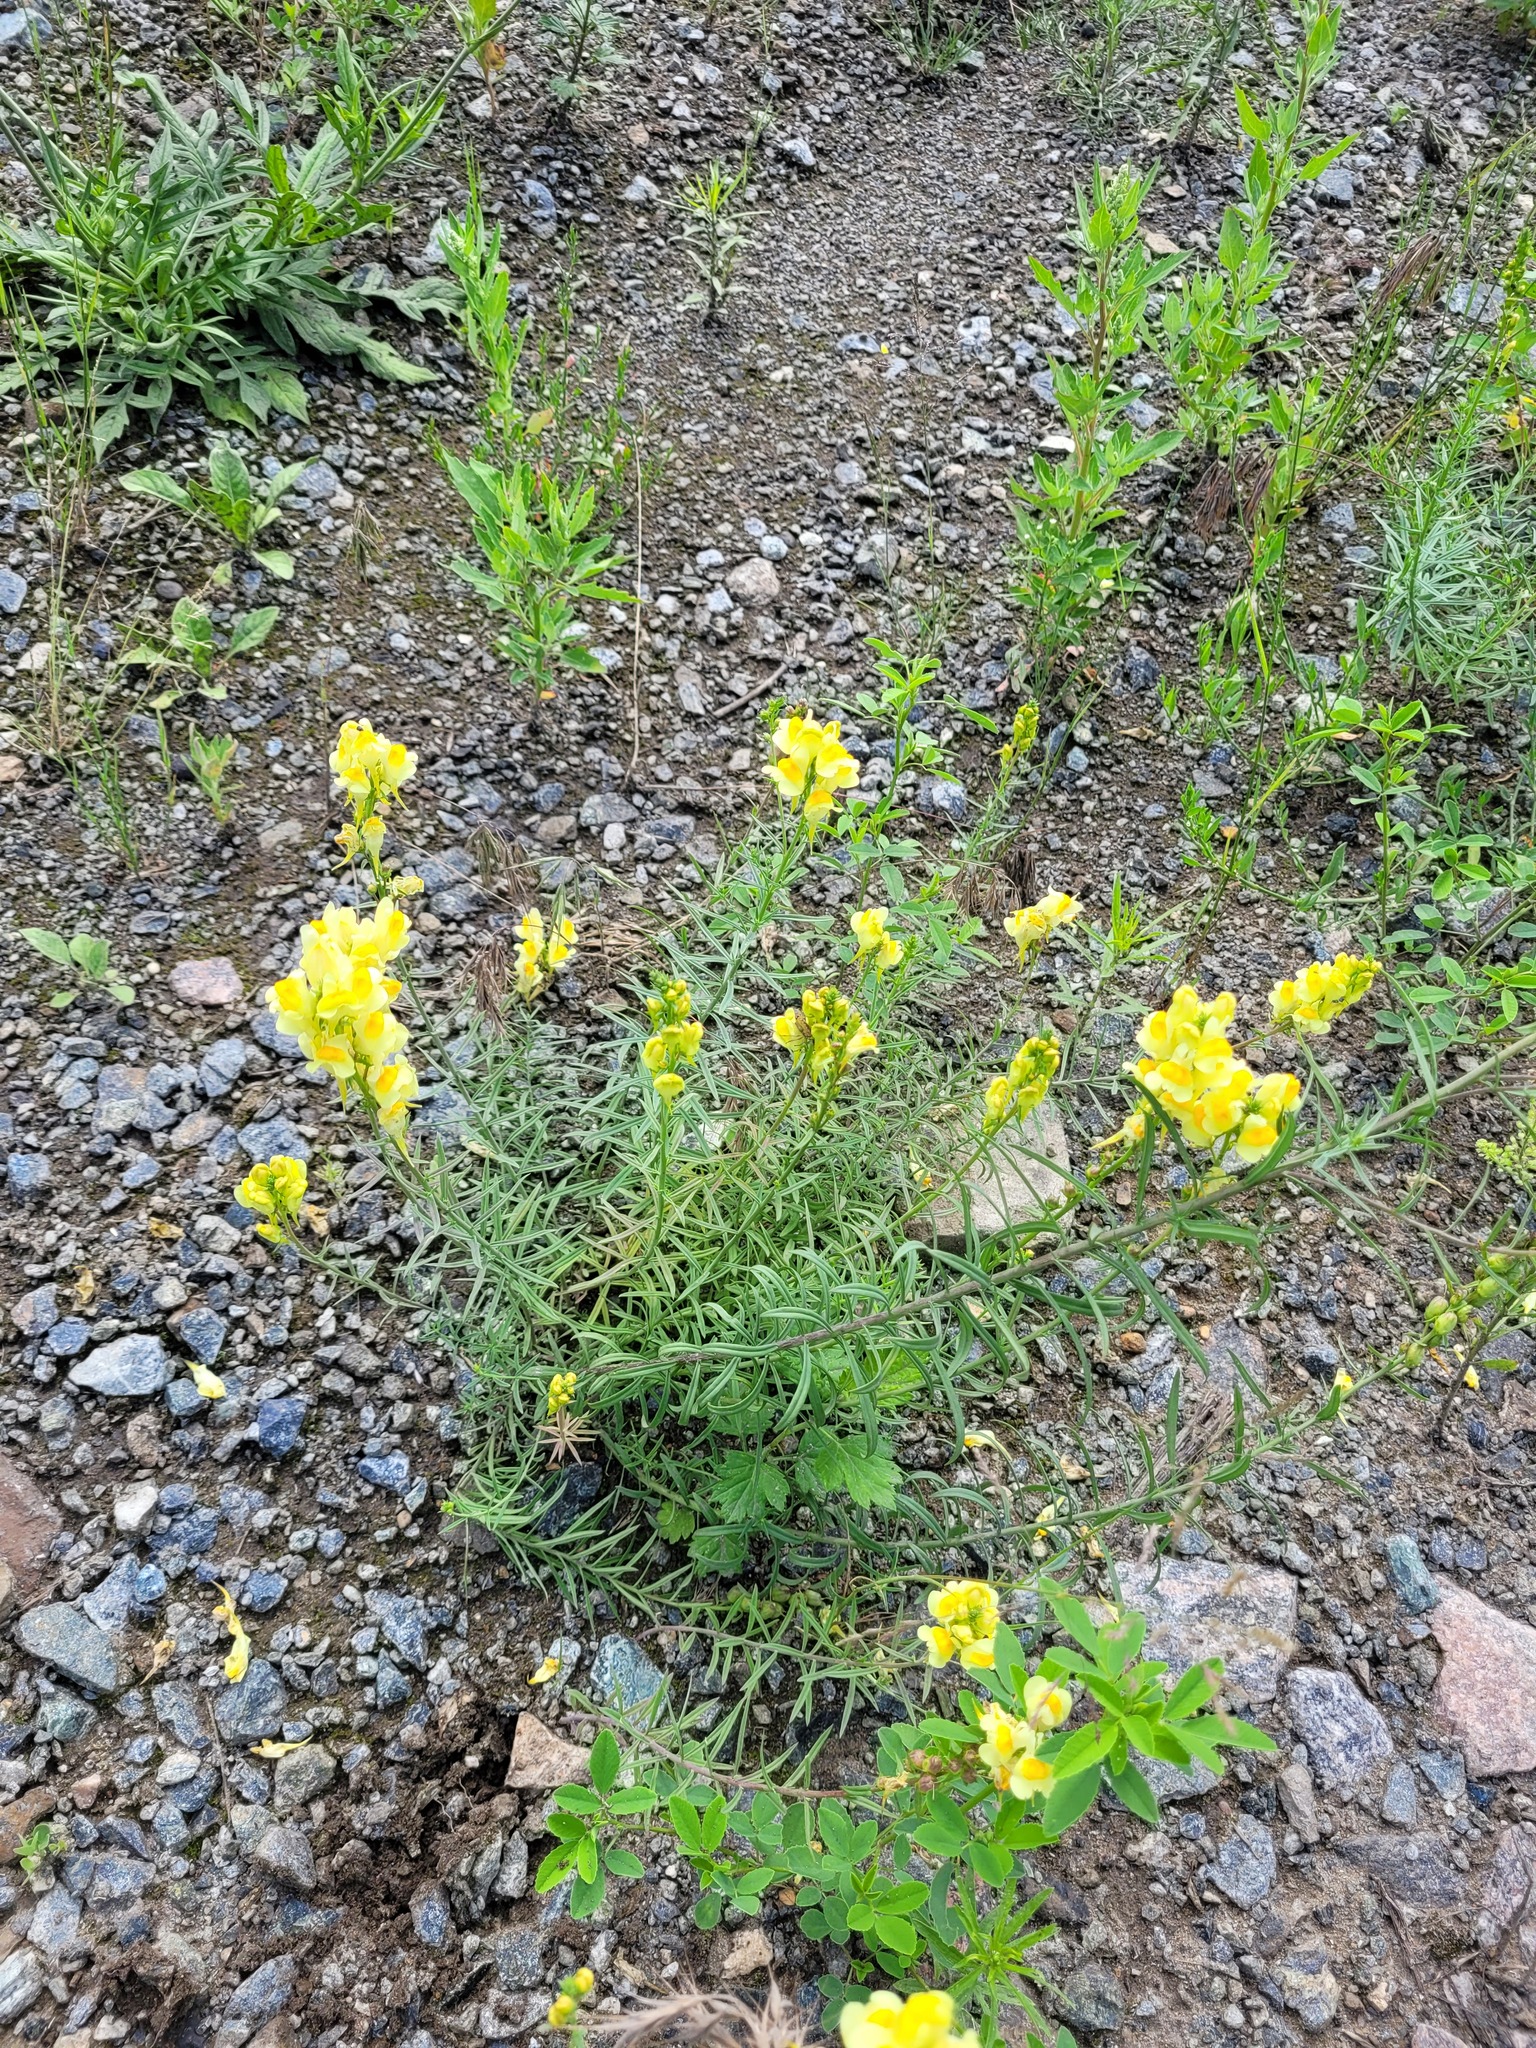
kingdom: Plantae
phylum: Tracheophyta
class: Magnoliopsida
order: Lamiales
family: Plantaginaceae
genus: Linaria
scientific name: Linaria vulgaris
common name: Butter and eggs
